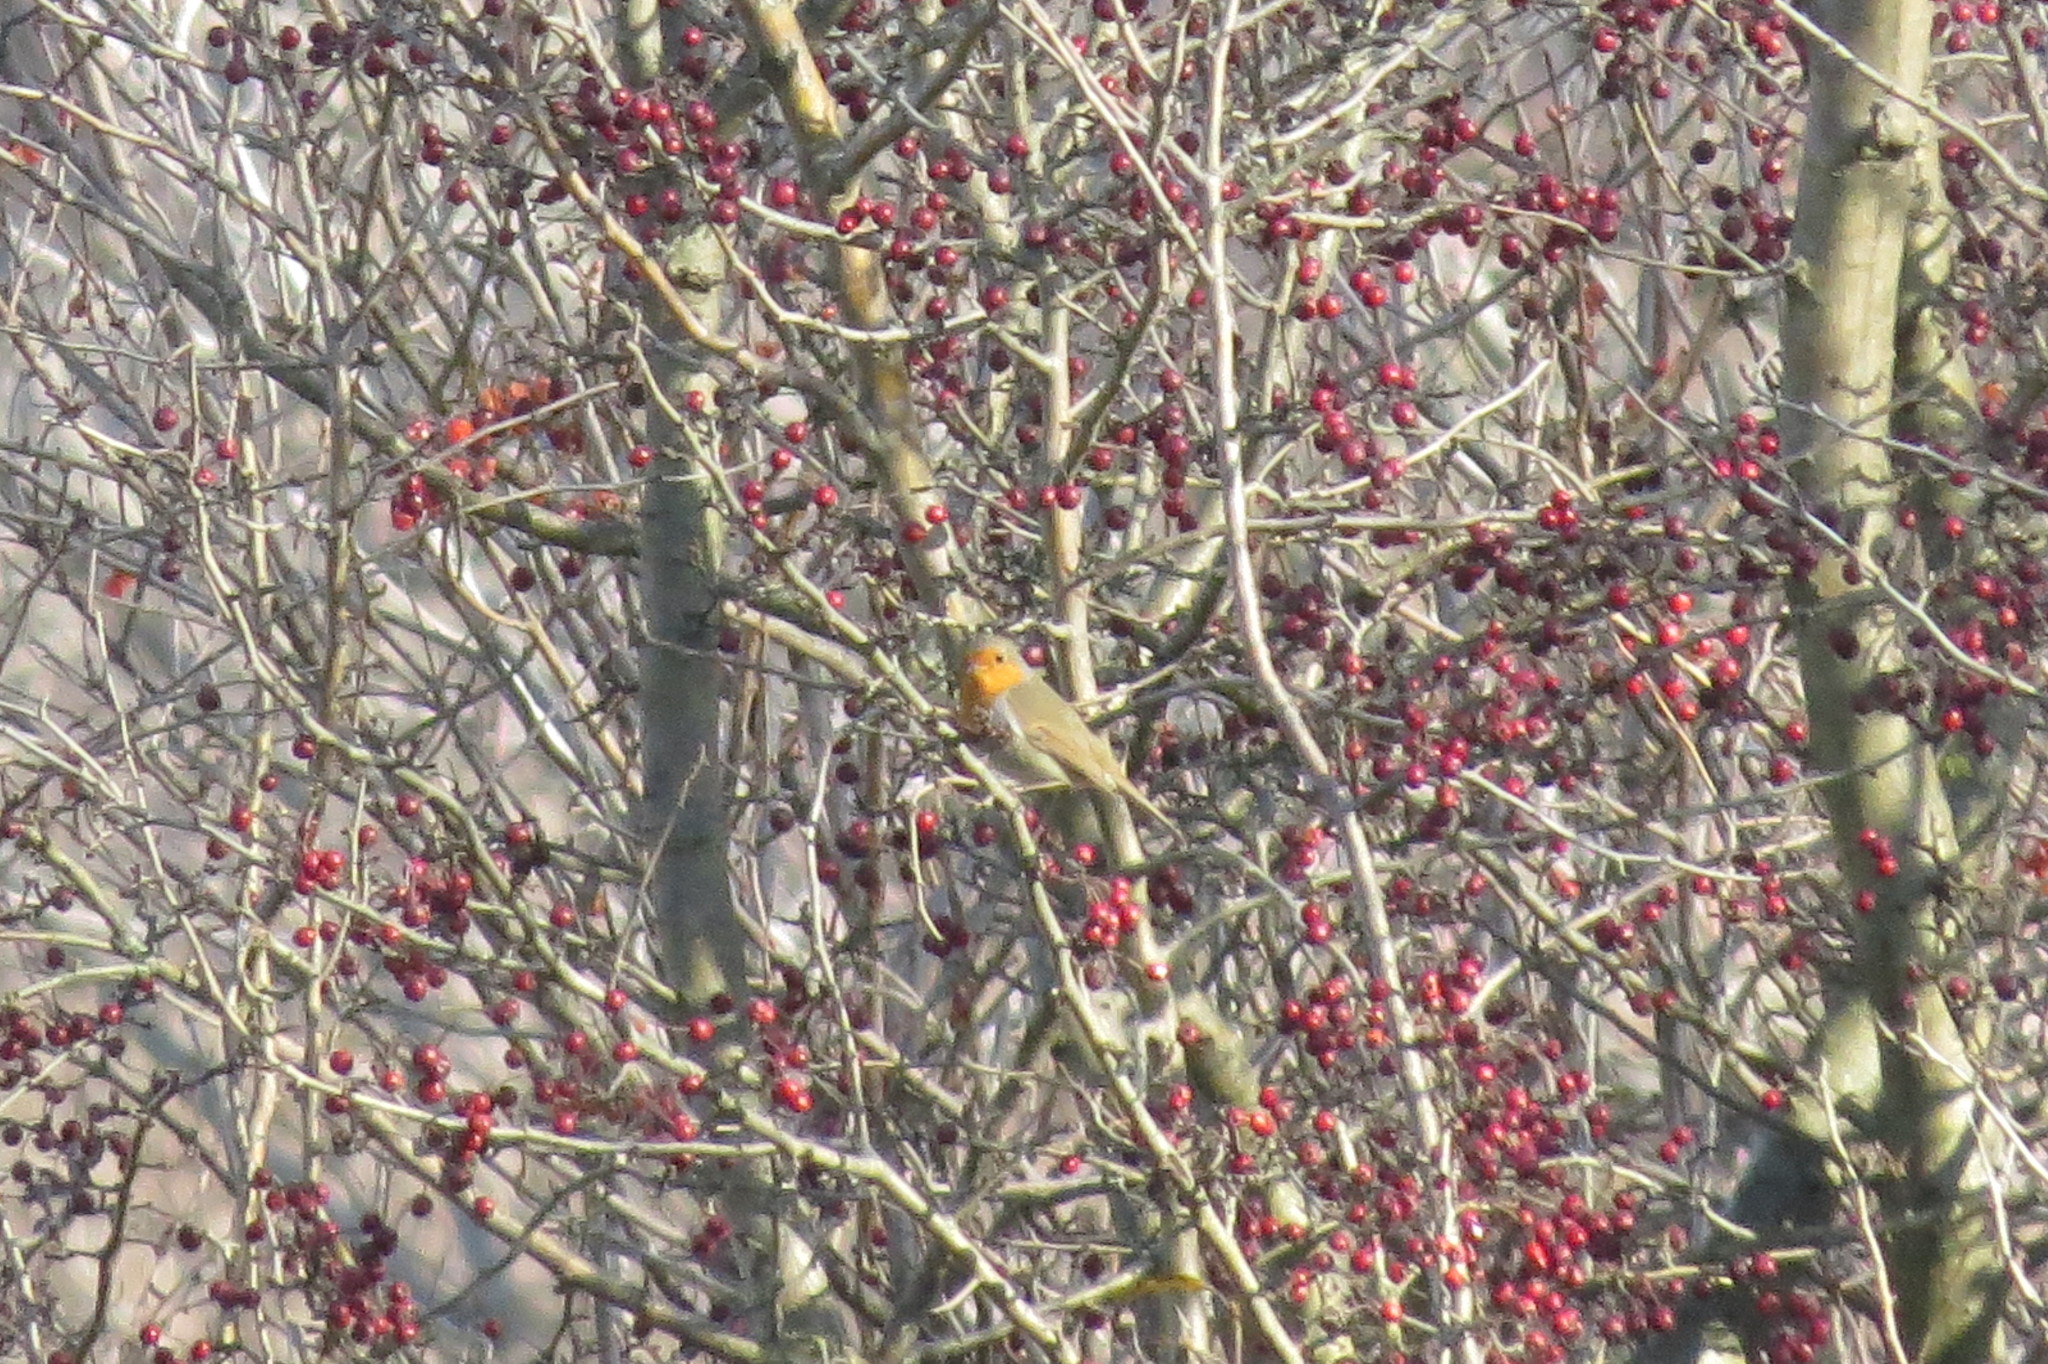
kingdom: Animalia
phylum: Chordata
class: Aves
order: Passeriformes
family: Muscicapidae
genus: Erithacus
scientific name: Erithacus rubecula
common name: European robin
